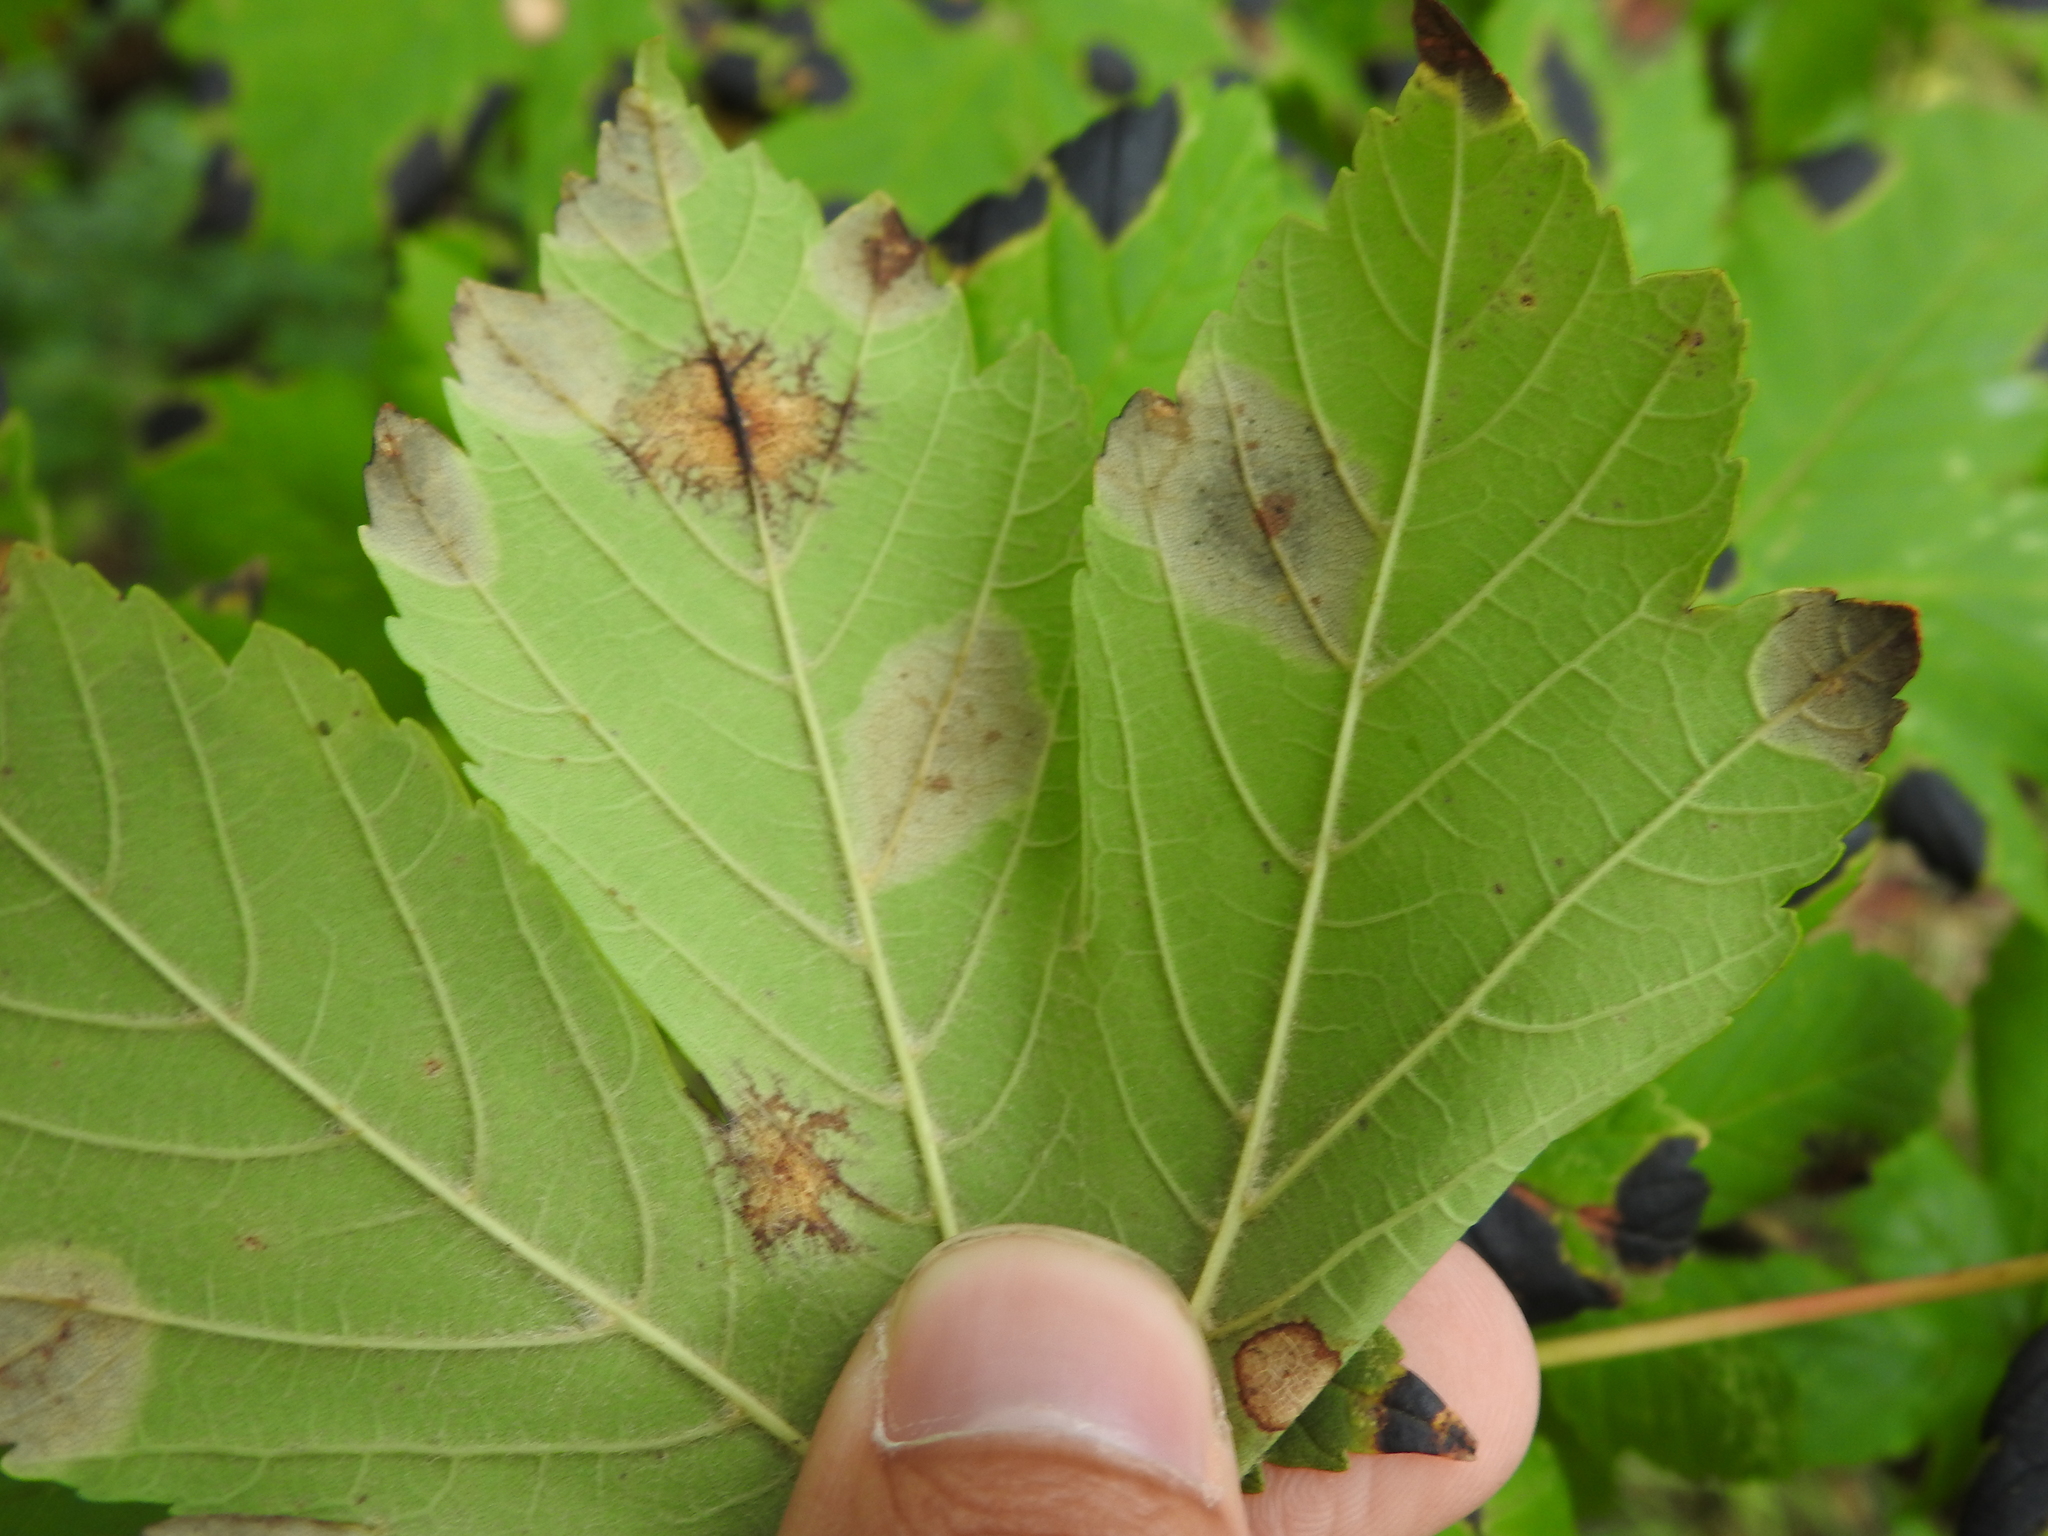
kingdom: Fungi
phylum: Ascomycota
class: Leotiomycetes
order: Rhytismatales
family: Rhytismataceae
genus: Rhytisma
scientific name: Rhytisma acerinum
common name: European tar spot
